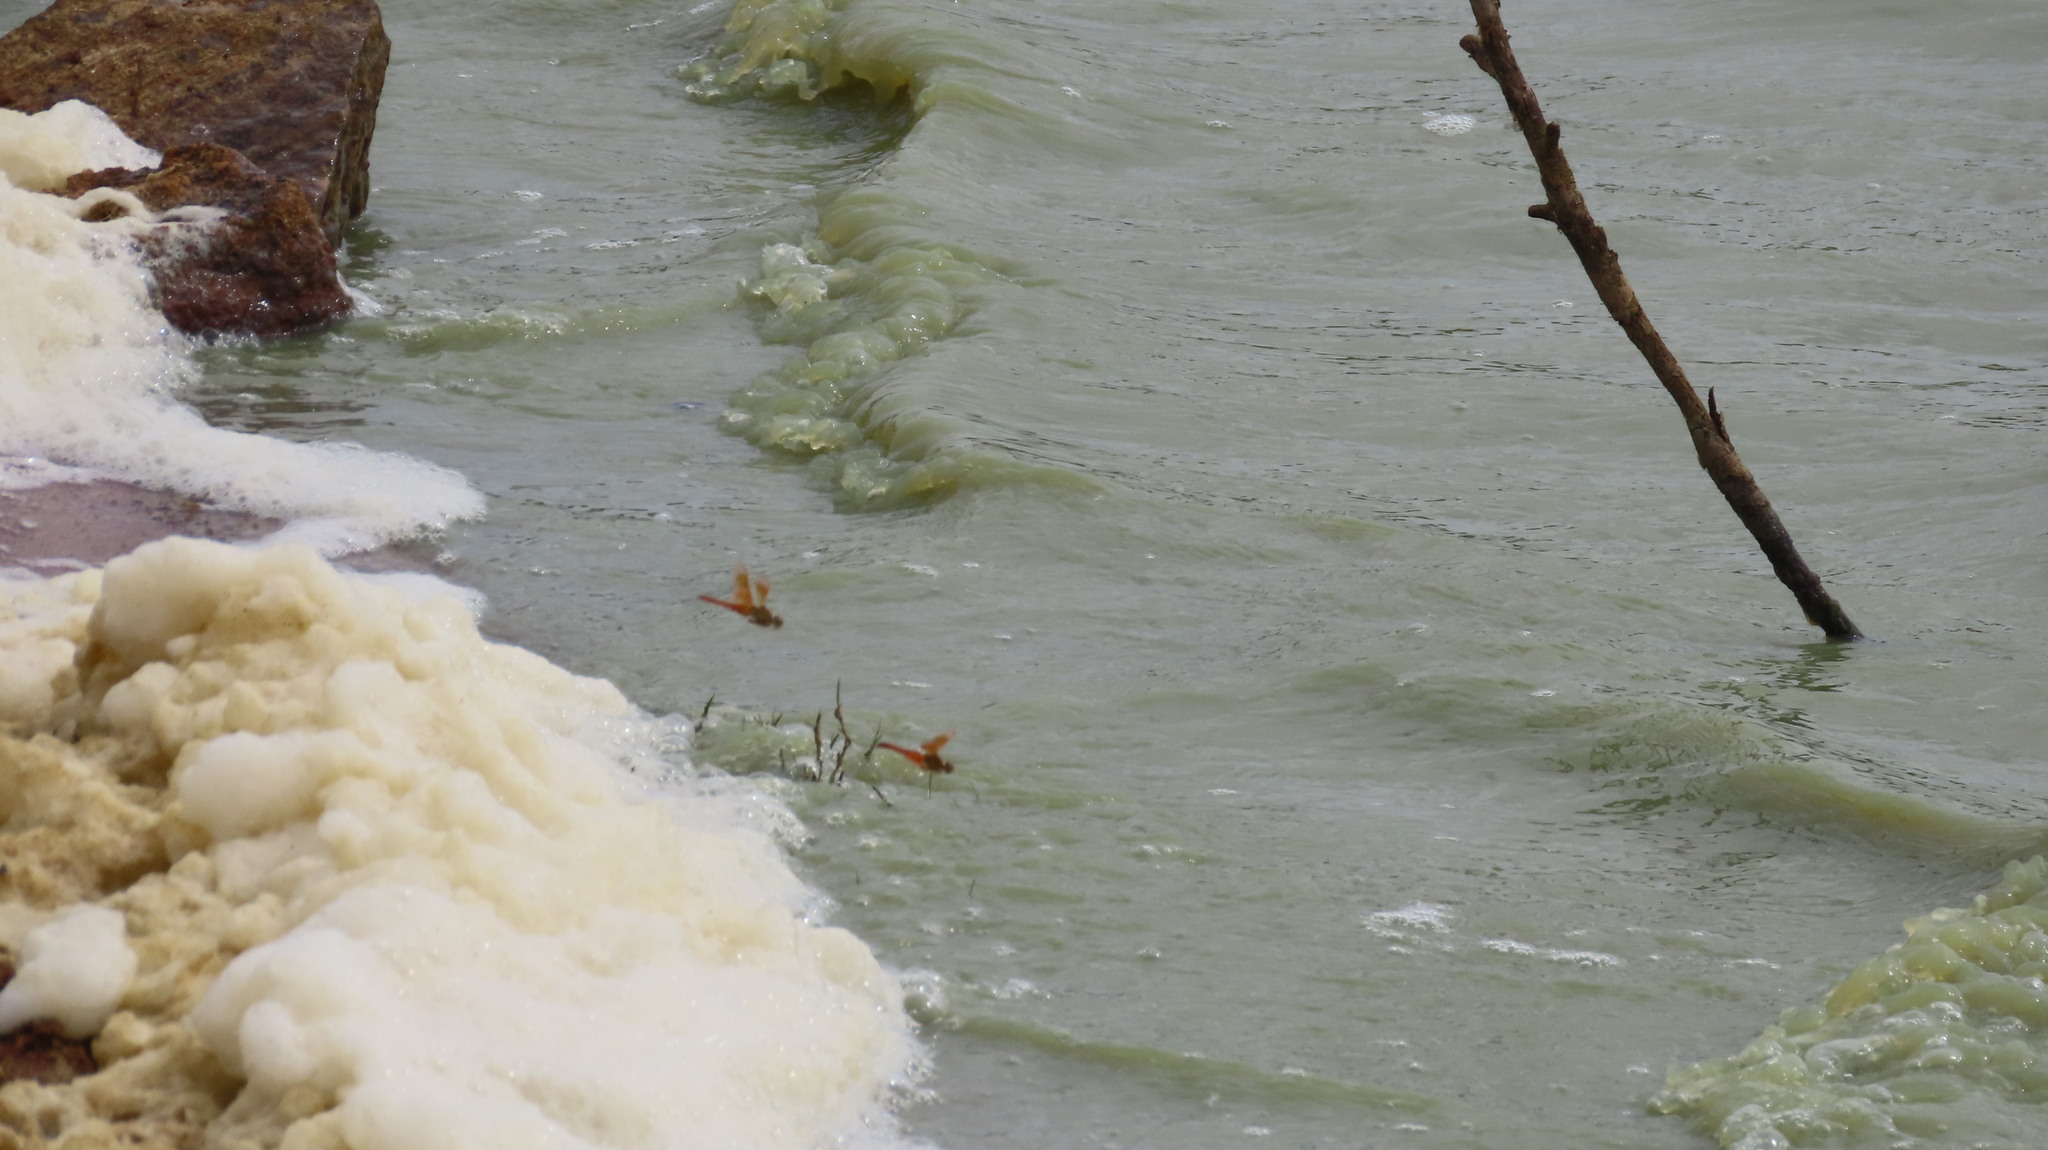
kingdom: Animalia
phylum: Arthropoda
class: Insecta
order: Odonata
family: Libellulidae
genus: Brachythemis
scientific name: Brachythemis contaminata
